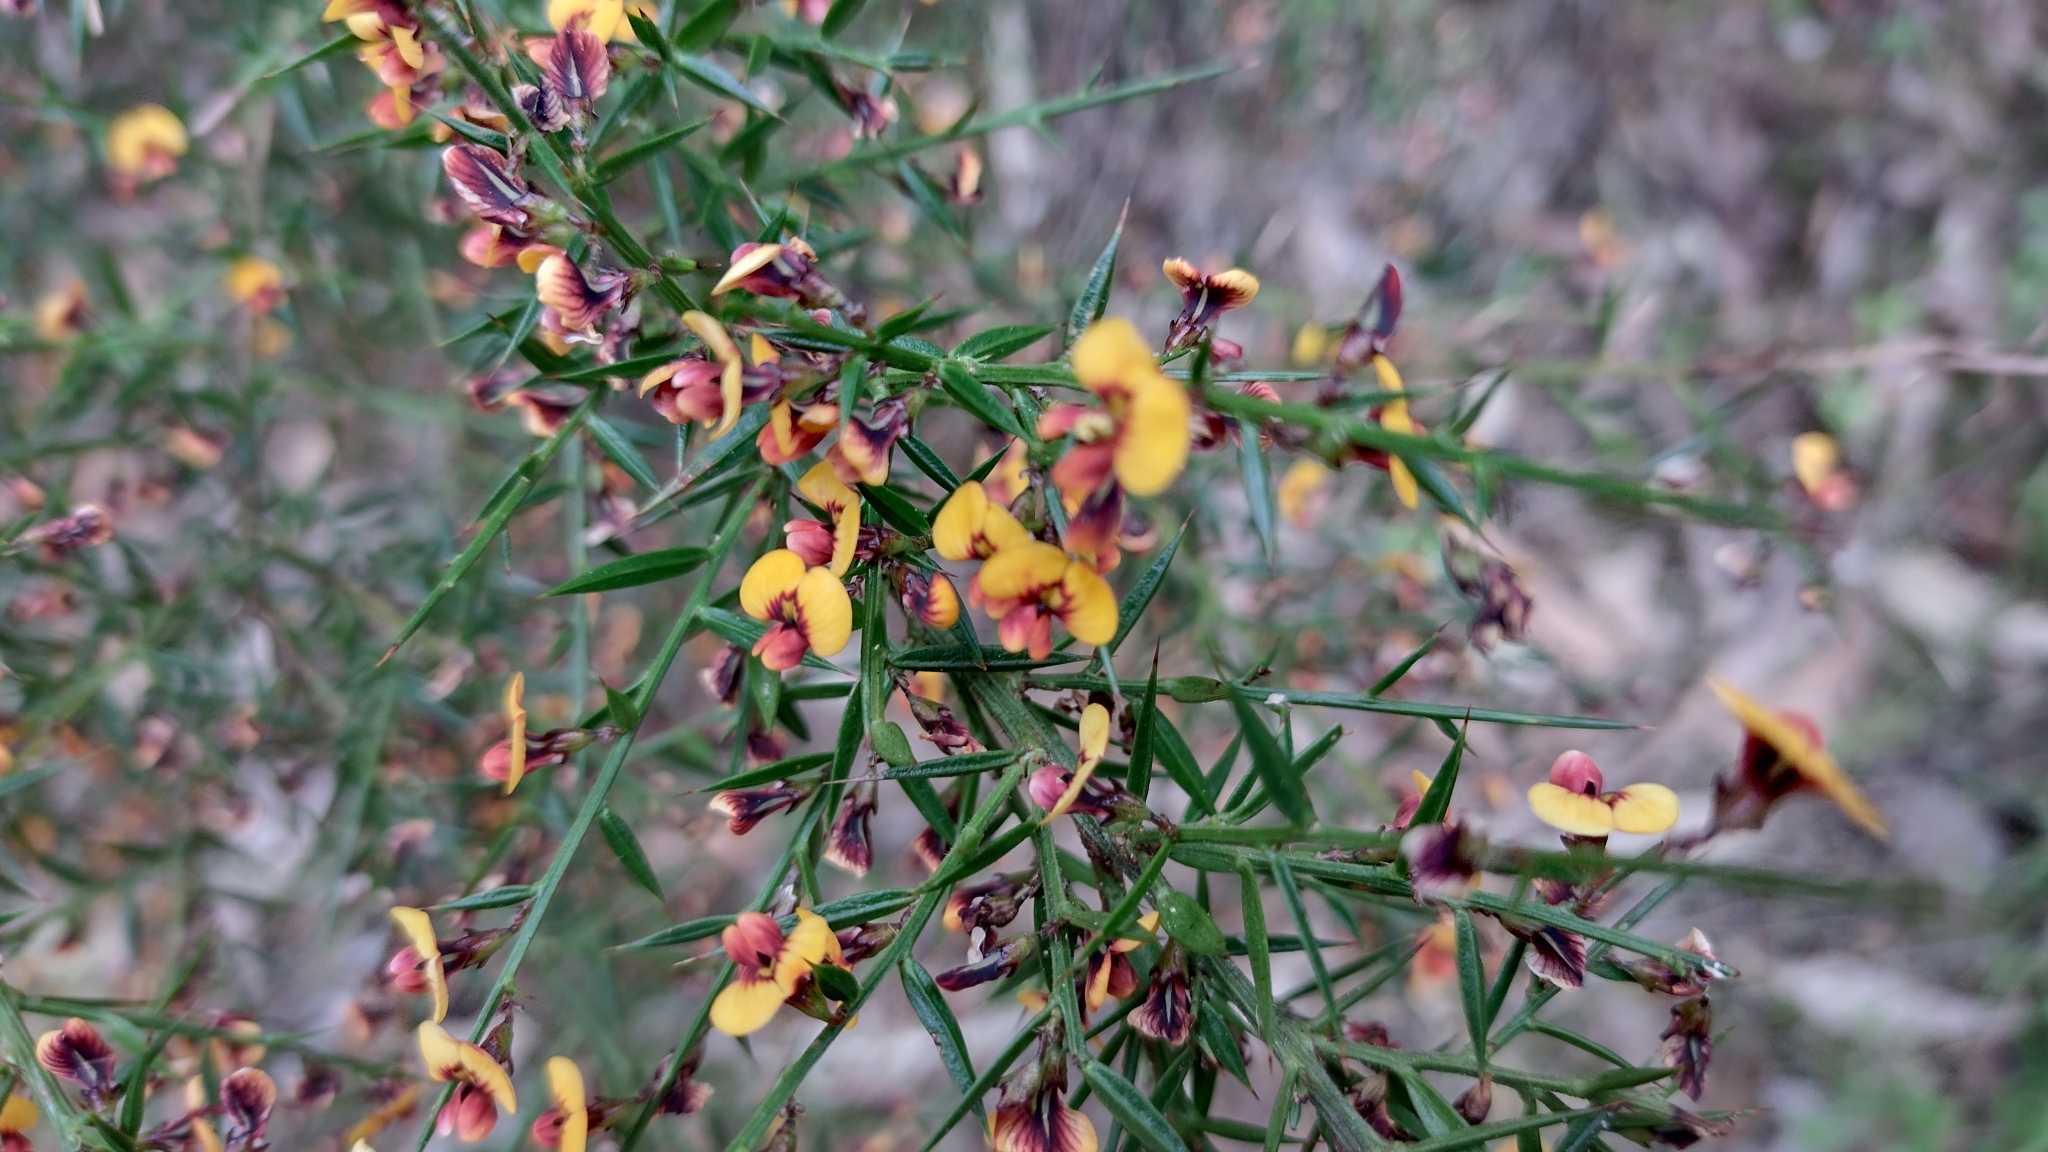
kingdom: Plantae
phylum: Tracheophyta
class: Magnoliopsida
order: Fabales
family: Fabaceae
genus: Daviesia
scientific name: Daviesia ulicifolia
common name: Gorse bitter-pea
